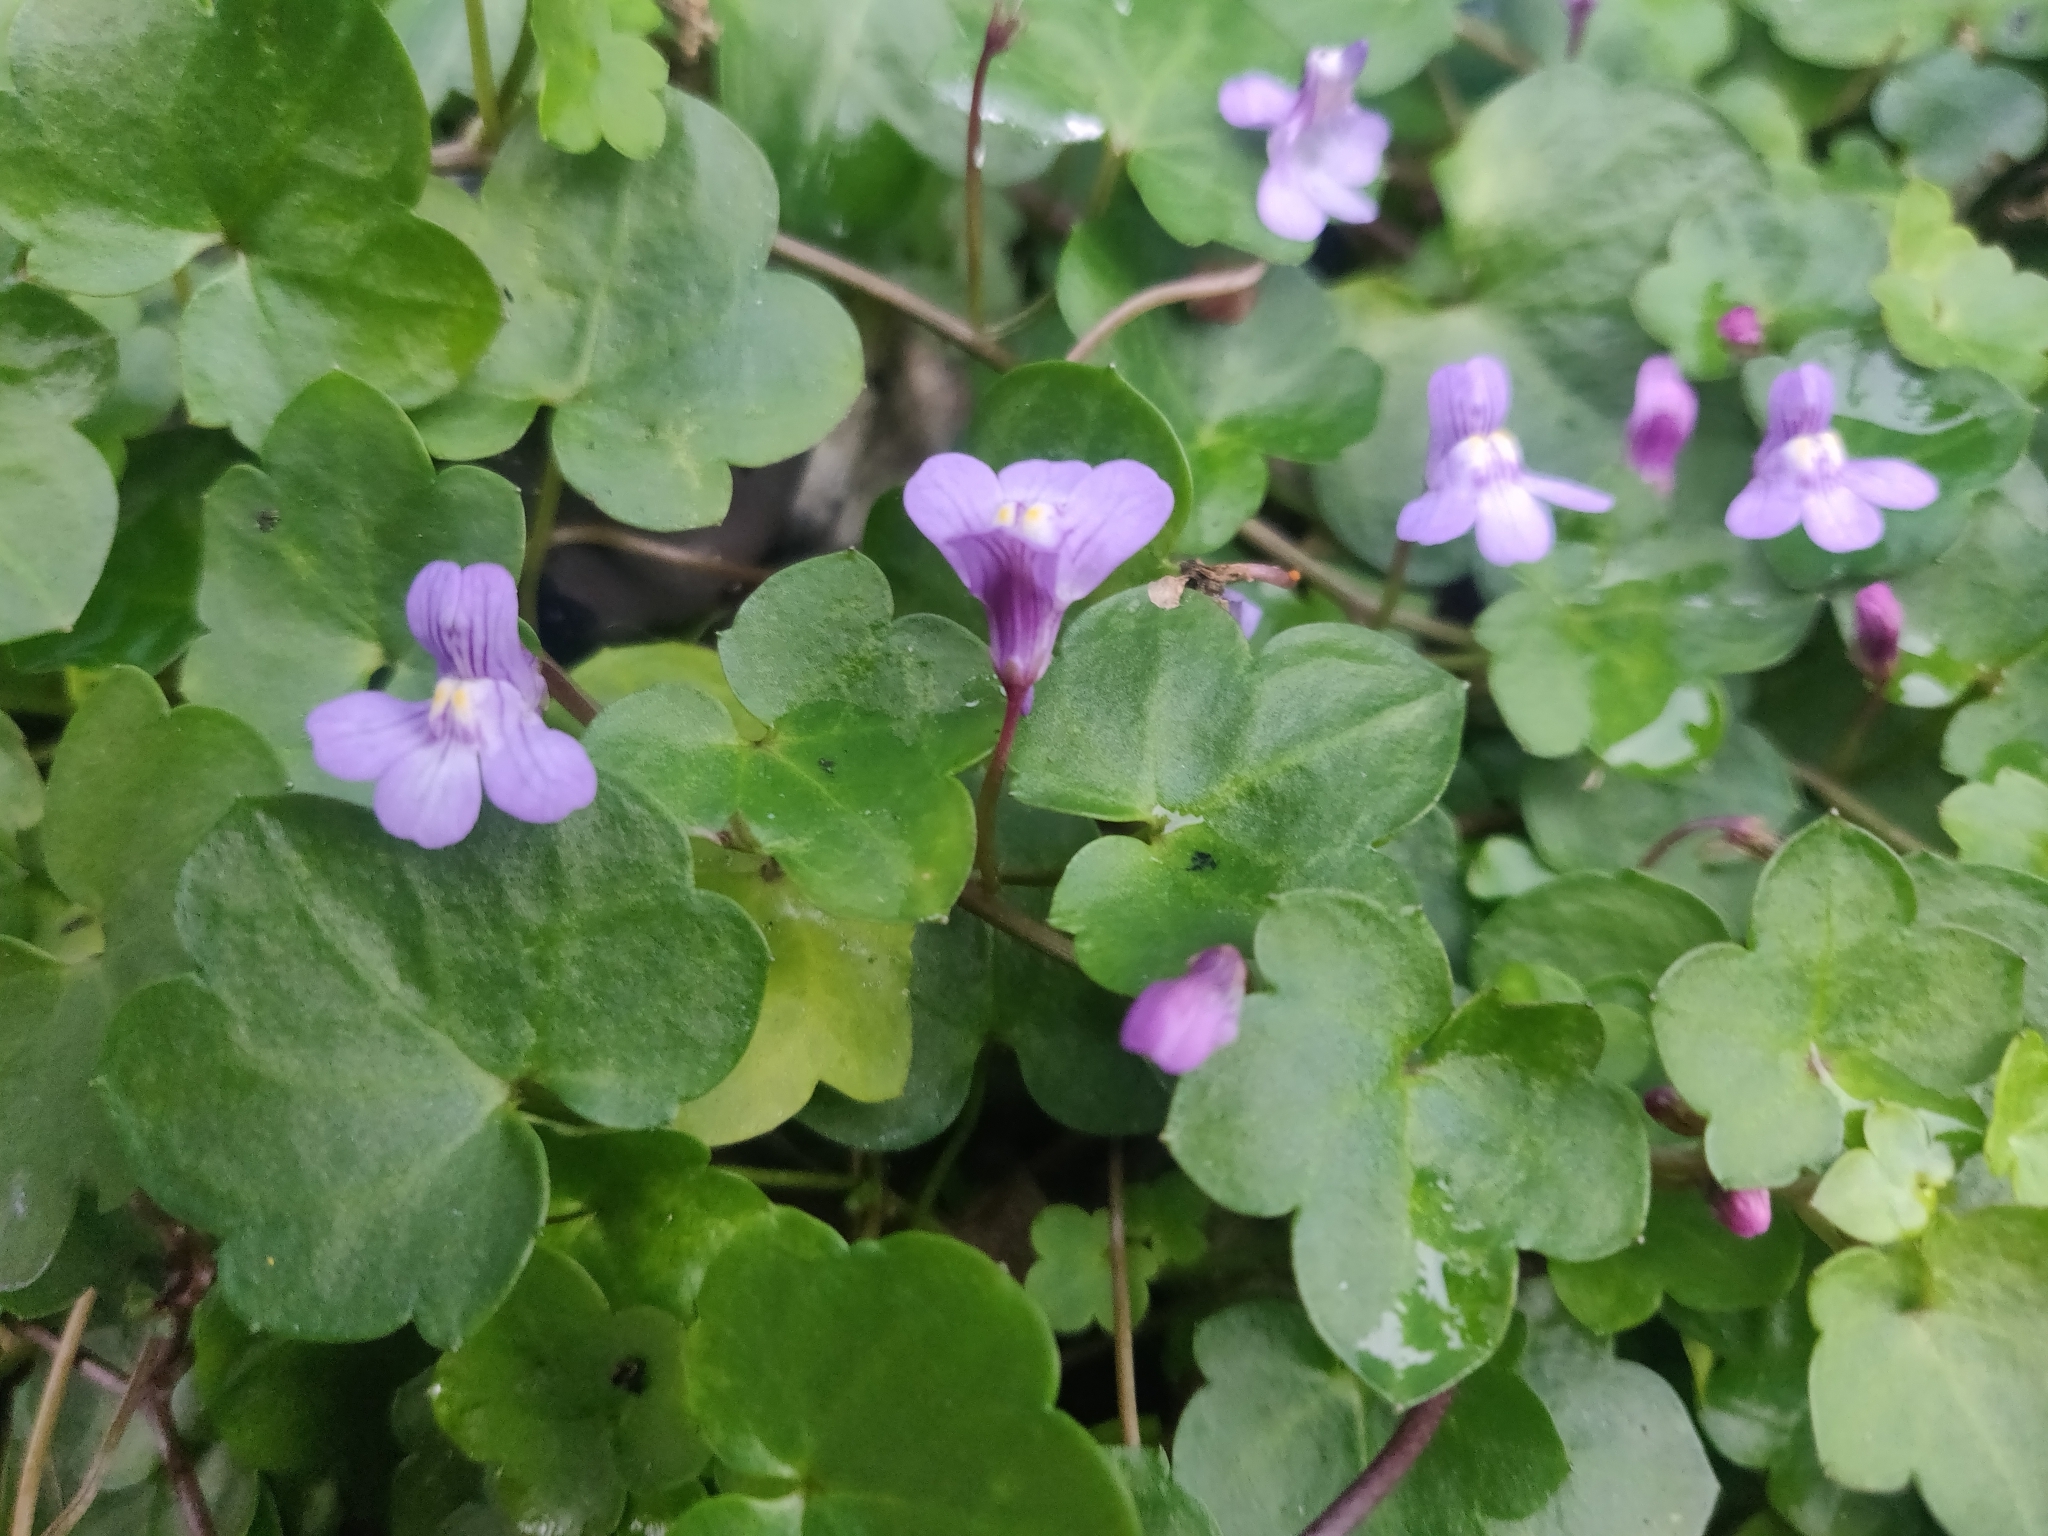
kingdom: Plantae
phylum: Tracheophyta
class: Magnoliopsida
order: Lamiales
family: Plantaginaceae
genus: Cymbalaria
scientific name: Cymbalaria muralis
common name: Ivy-leaved toadflax
